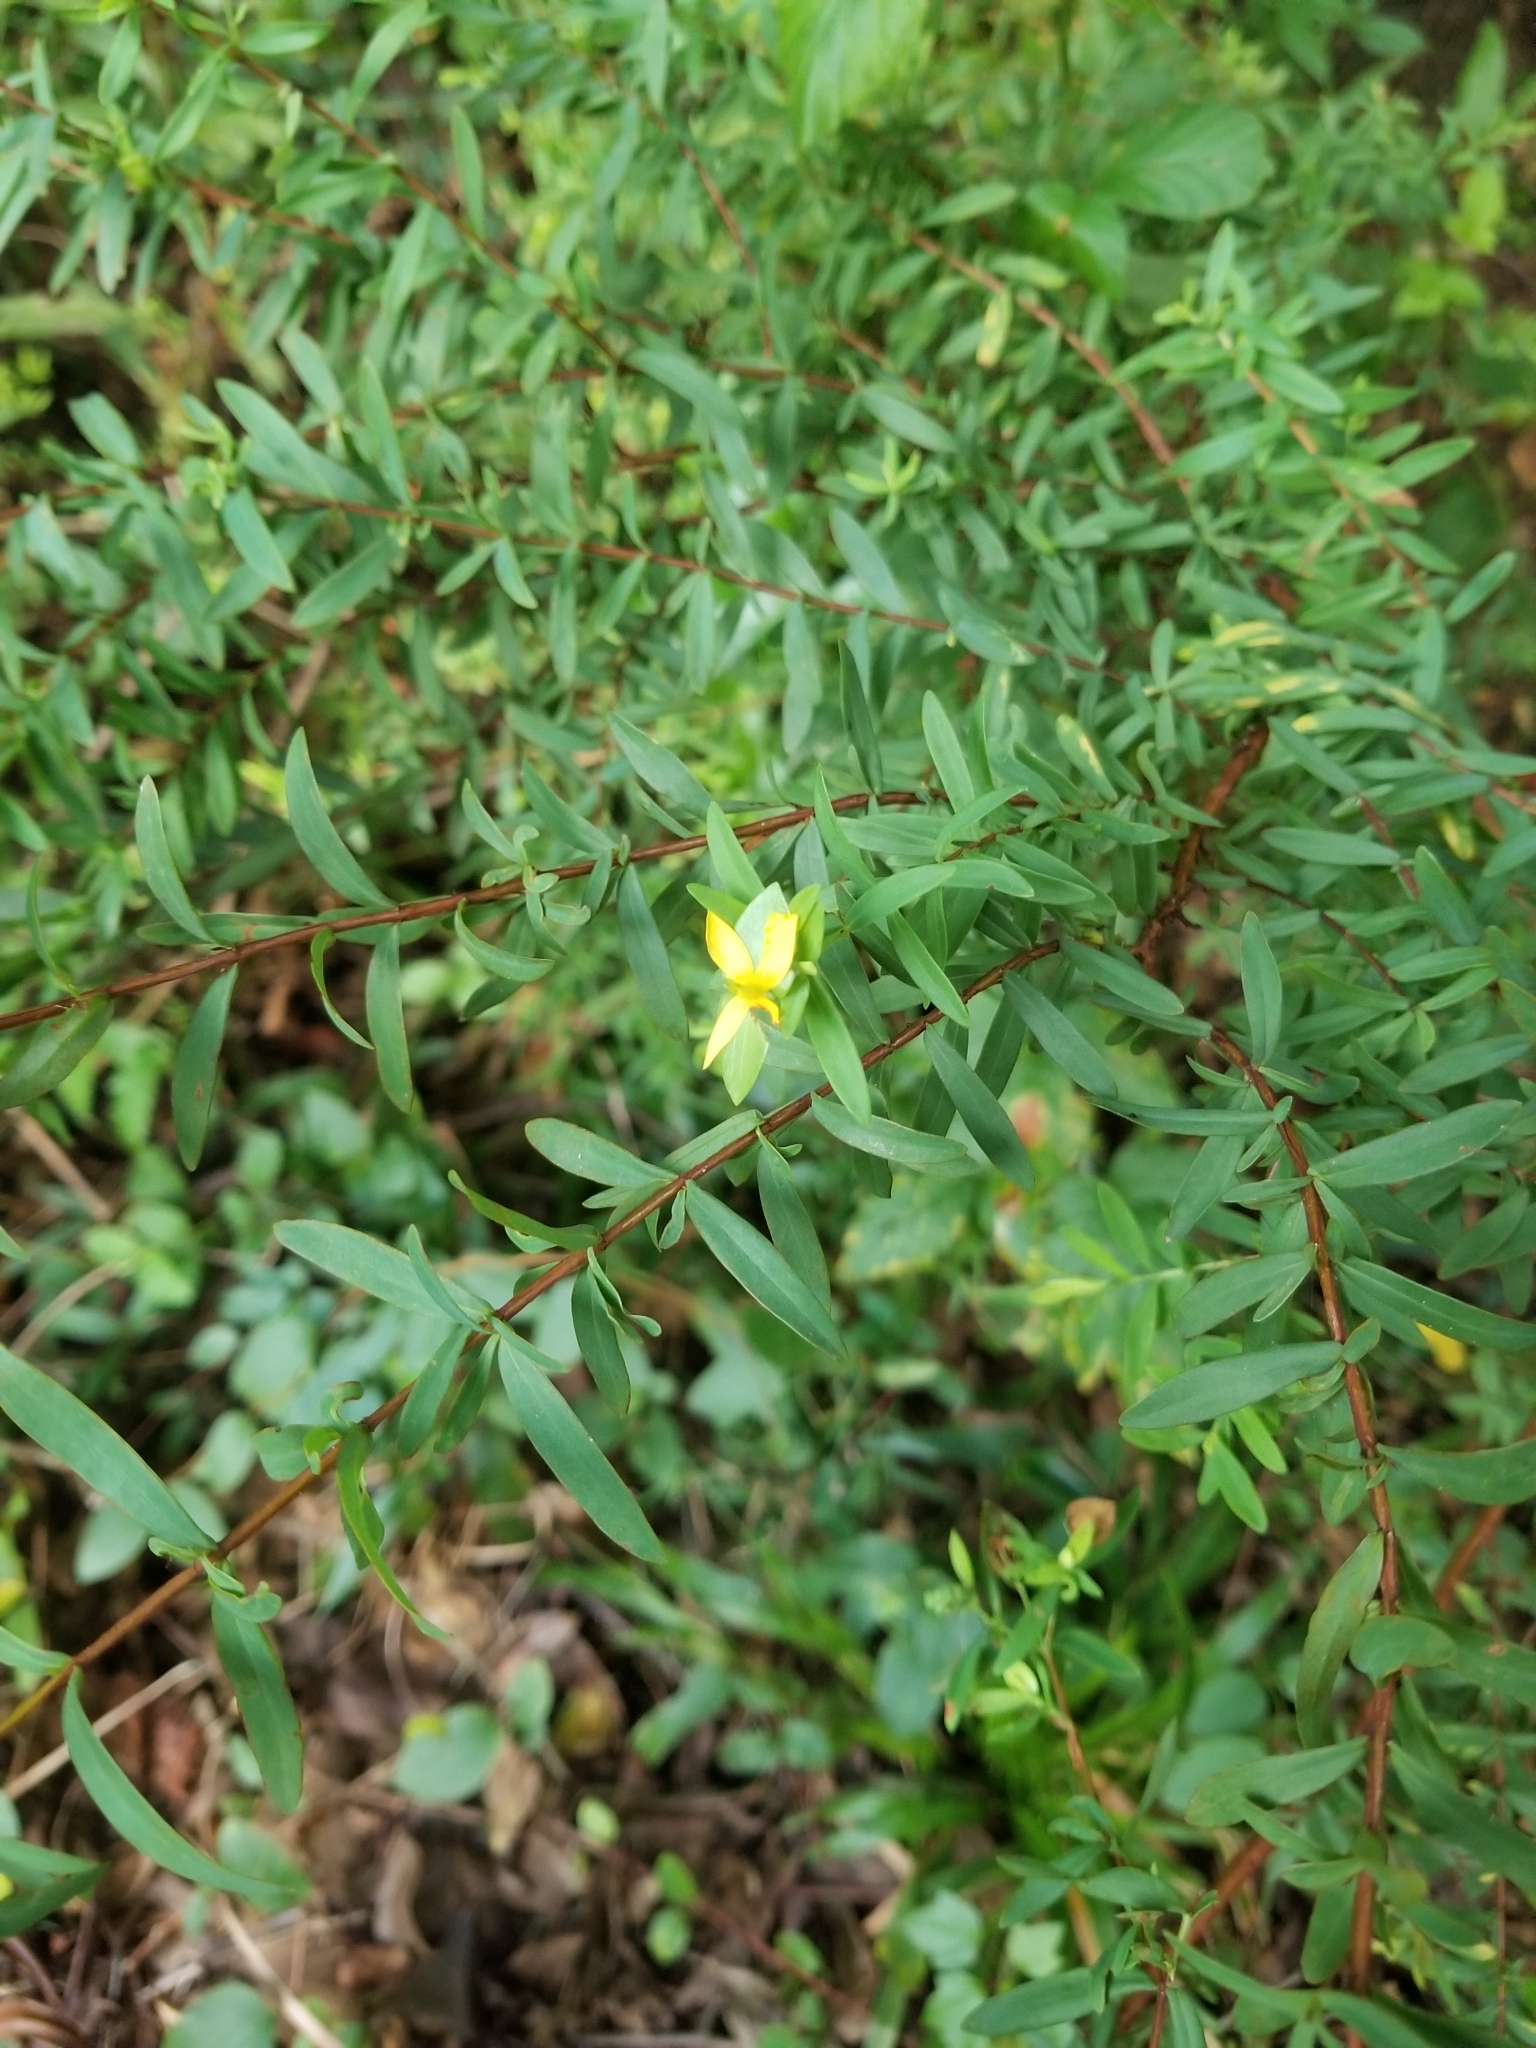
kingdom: Plantae
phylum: Tracheophyta
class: Magnoliopsida
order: Malpighiales
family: Hypericaceae
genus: Hypericum
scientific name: Hypericum hypericoides
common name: St. andrew's cross
